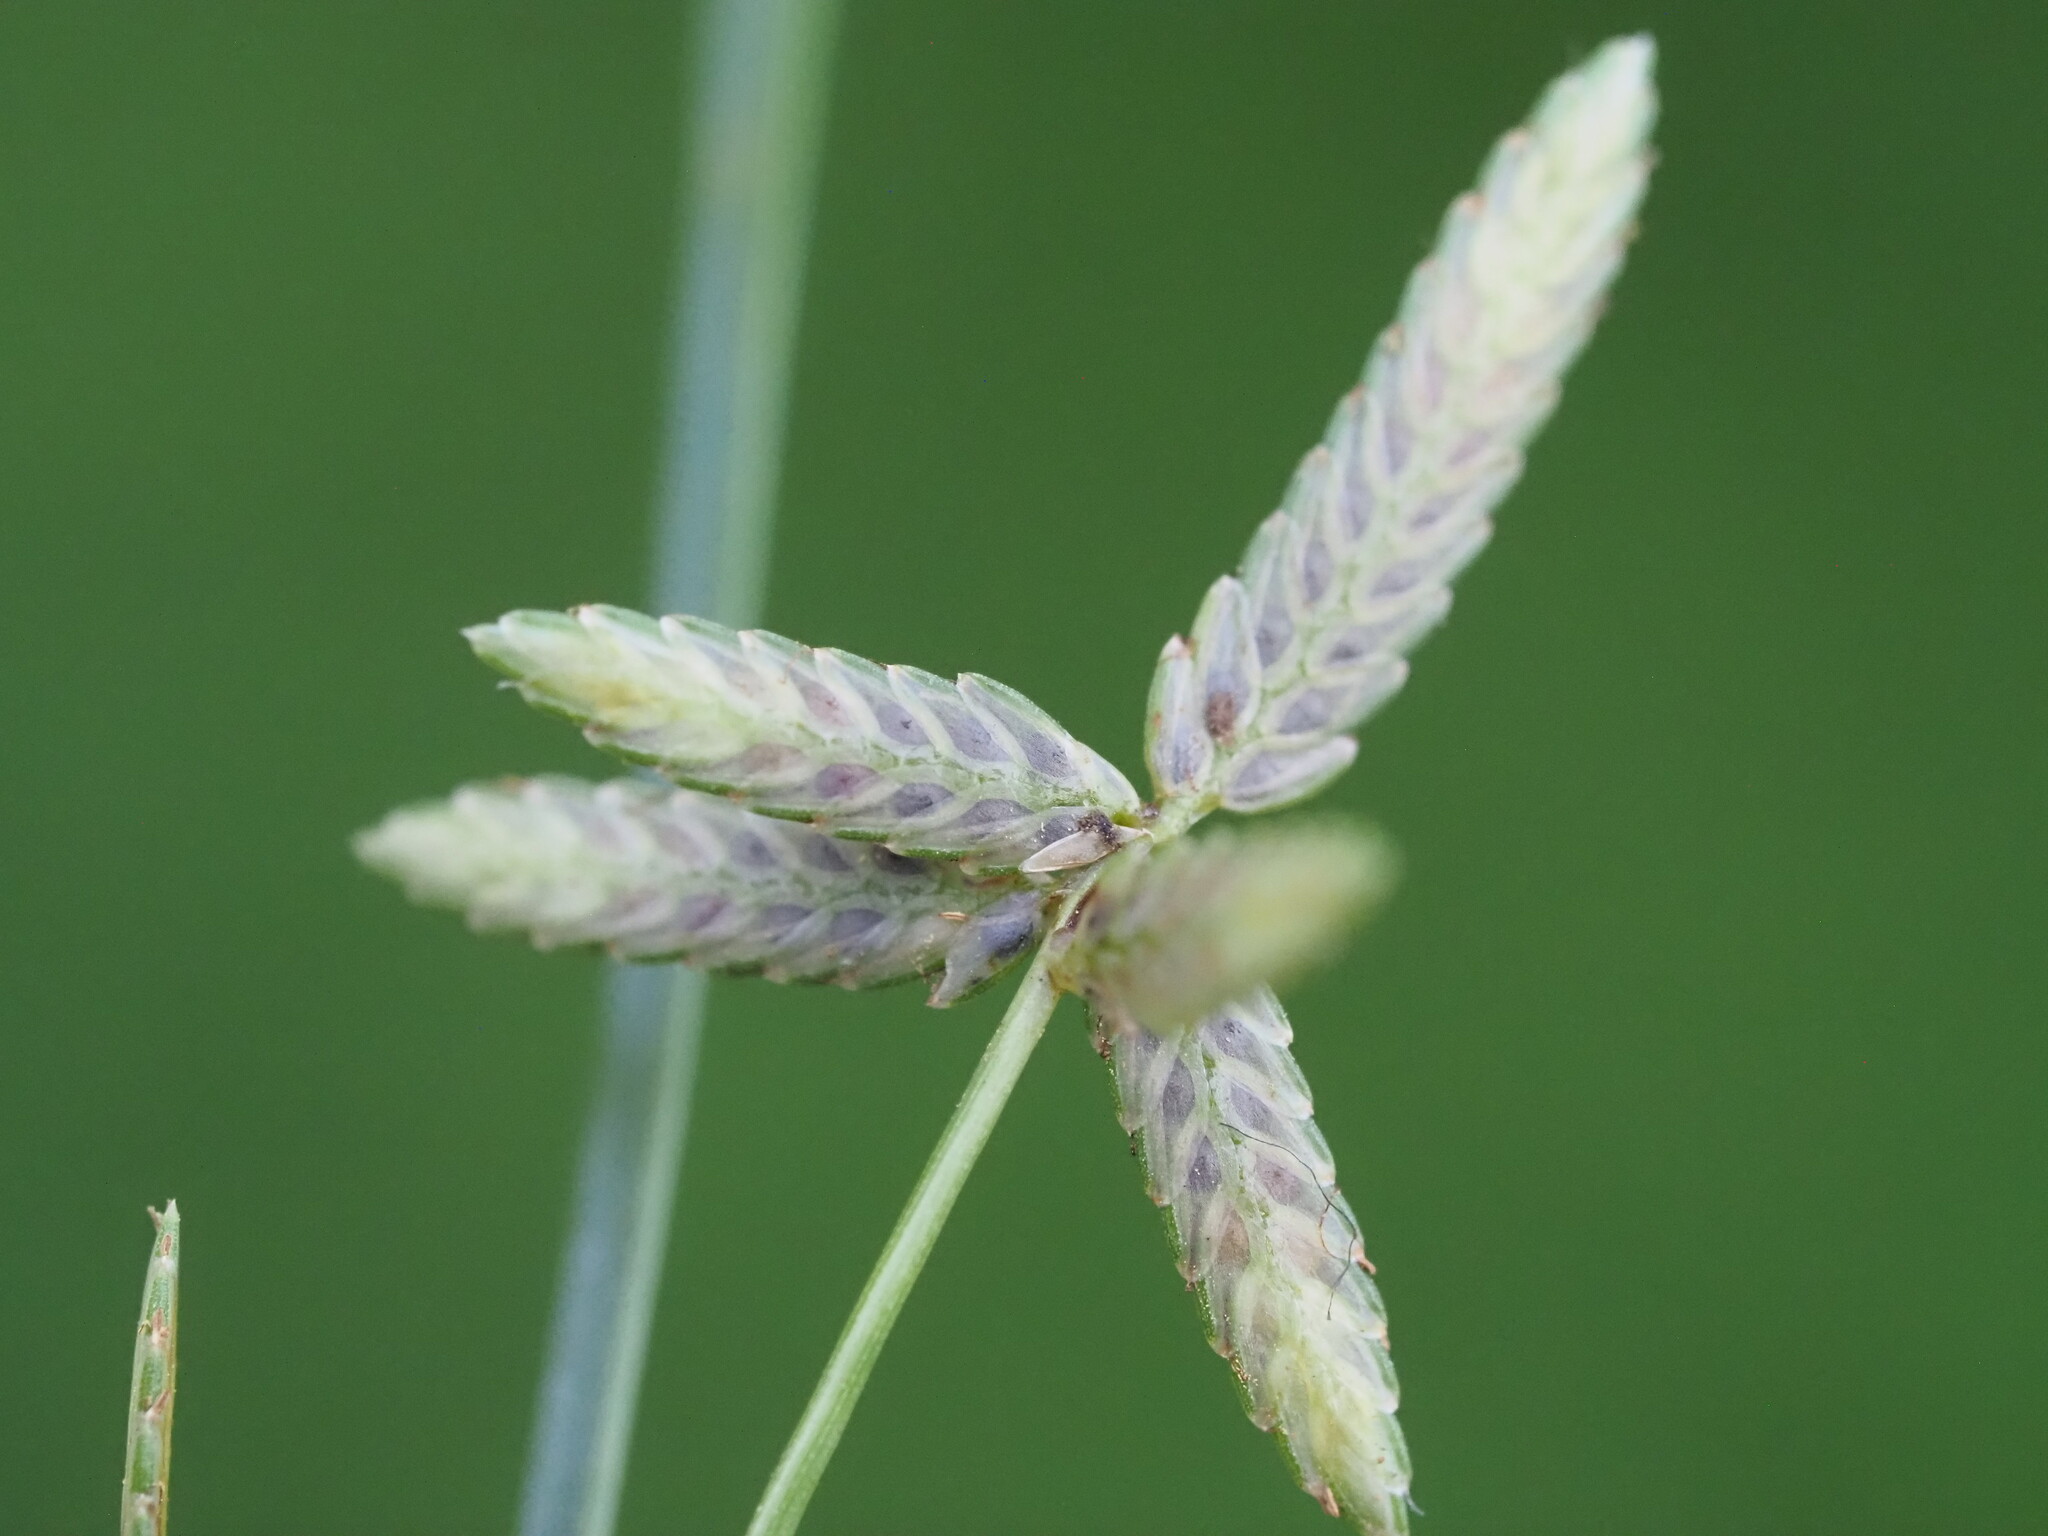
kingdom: Plantae
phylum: Tracheophyta
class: Liliopsida
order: Poales
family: Cyperaceae
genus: Cyperus
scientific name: Cyperus flavescens
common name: Yellow galingale
